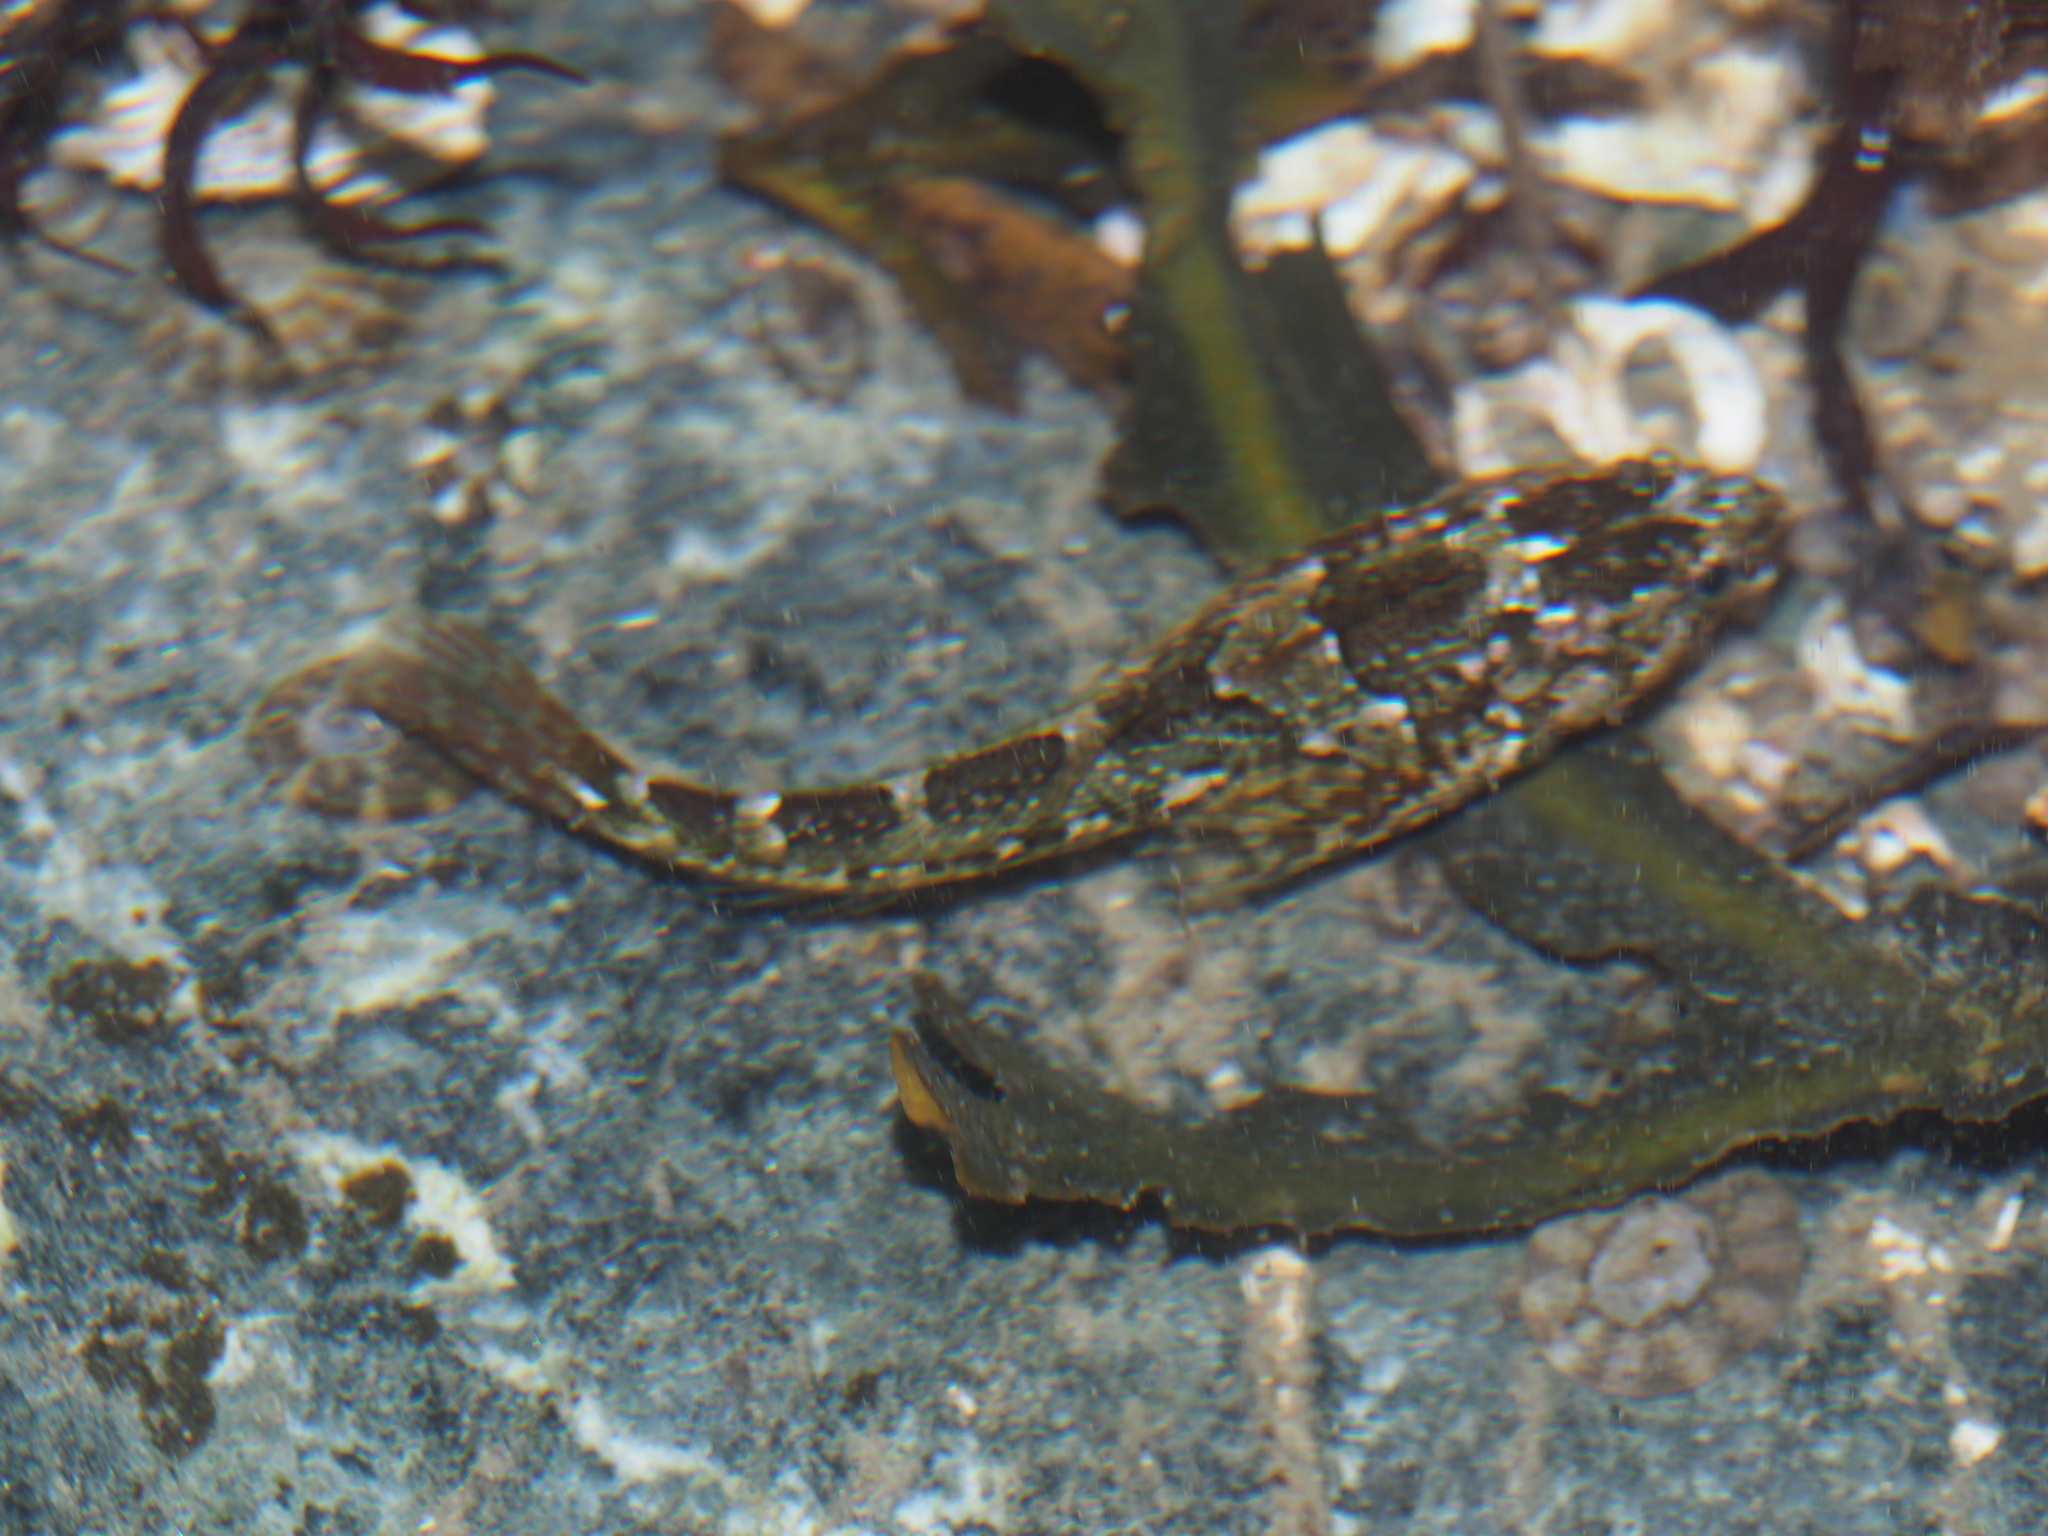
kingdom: Animalia
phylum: Chordata
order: Scorpaeniformes
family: Cottidae
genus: Oligocottus
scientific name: Oligocottus maculosus
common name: Tidepool sculpin
